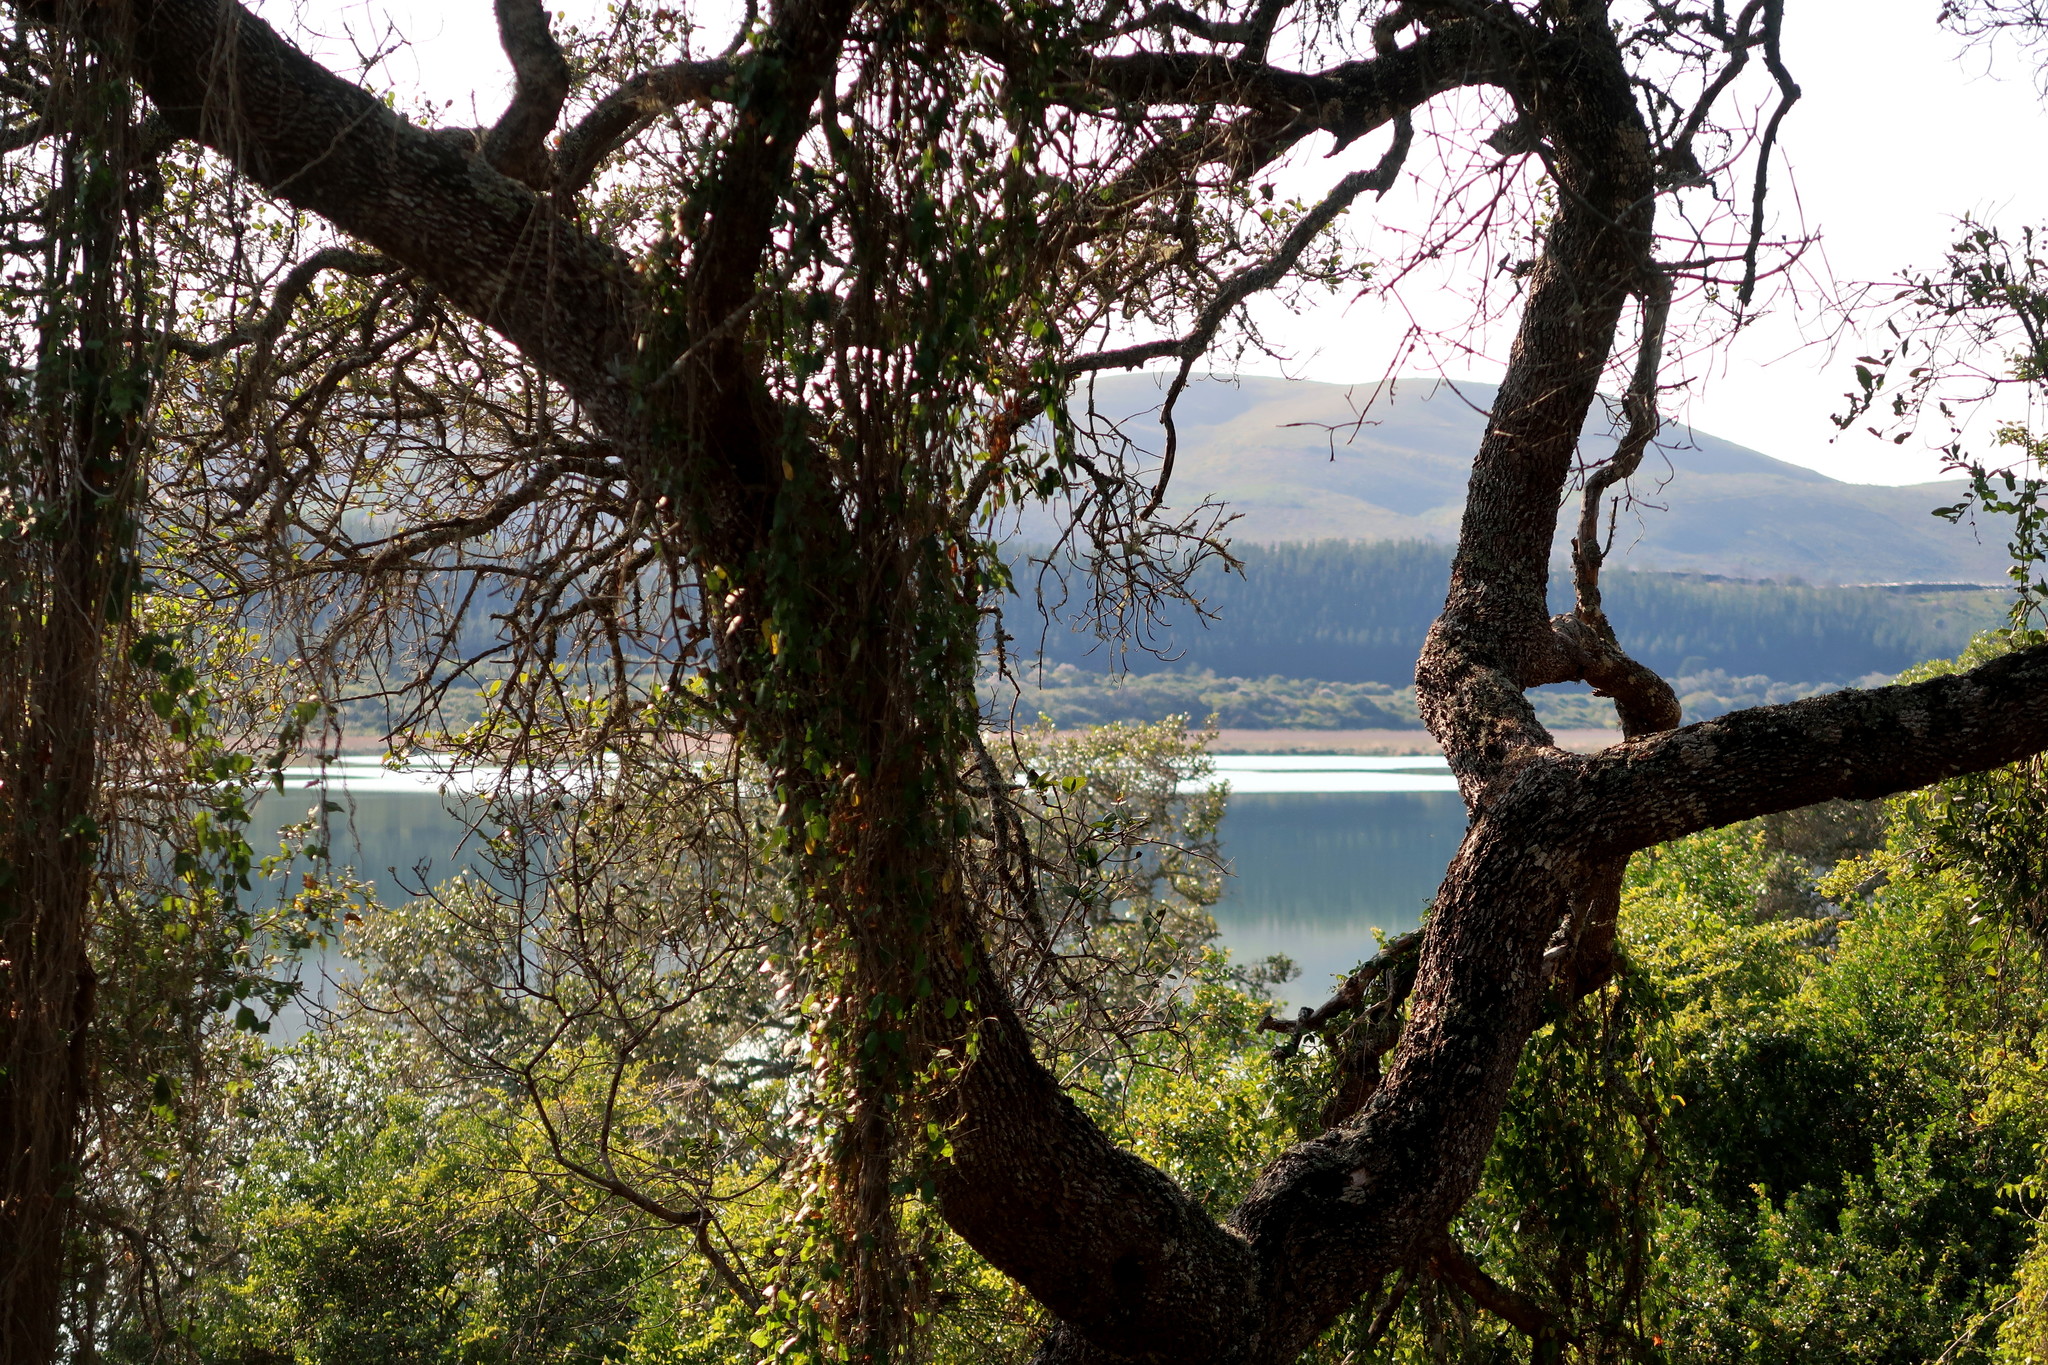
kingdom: Plantae
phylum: Tracheophyta
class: Magnoliopsida
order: Ericales
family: Sapotaceae
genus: Sideroxylon
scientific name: Sideroxylon inerme
